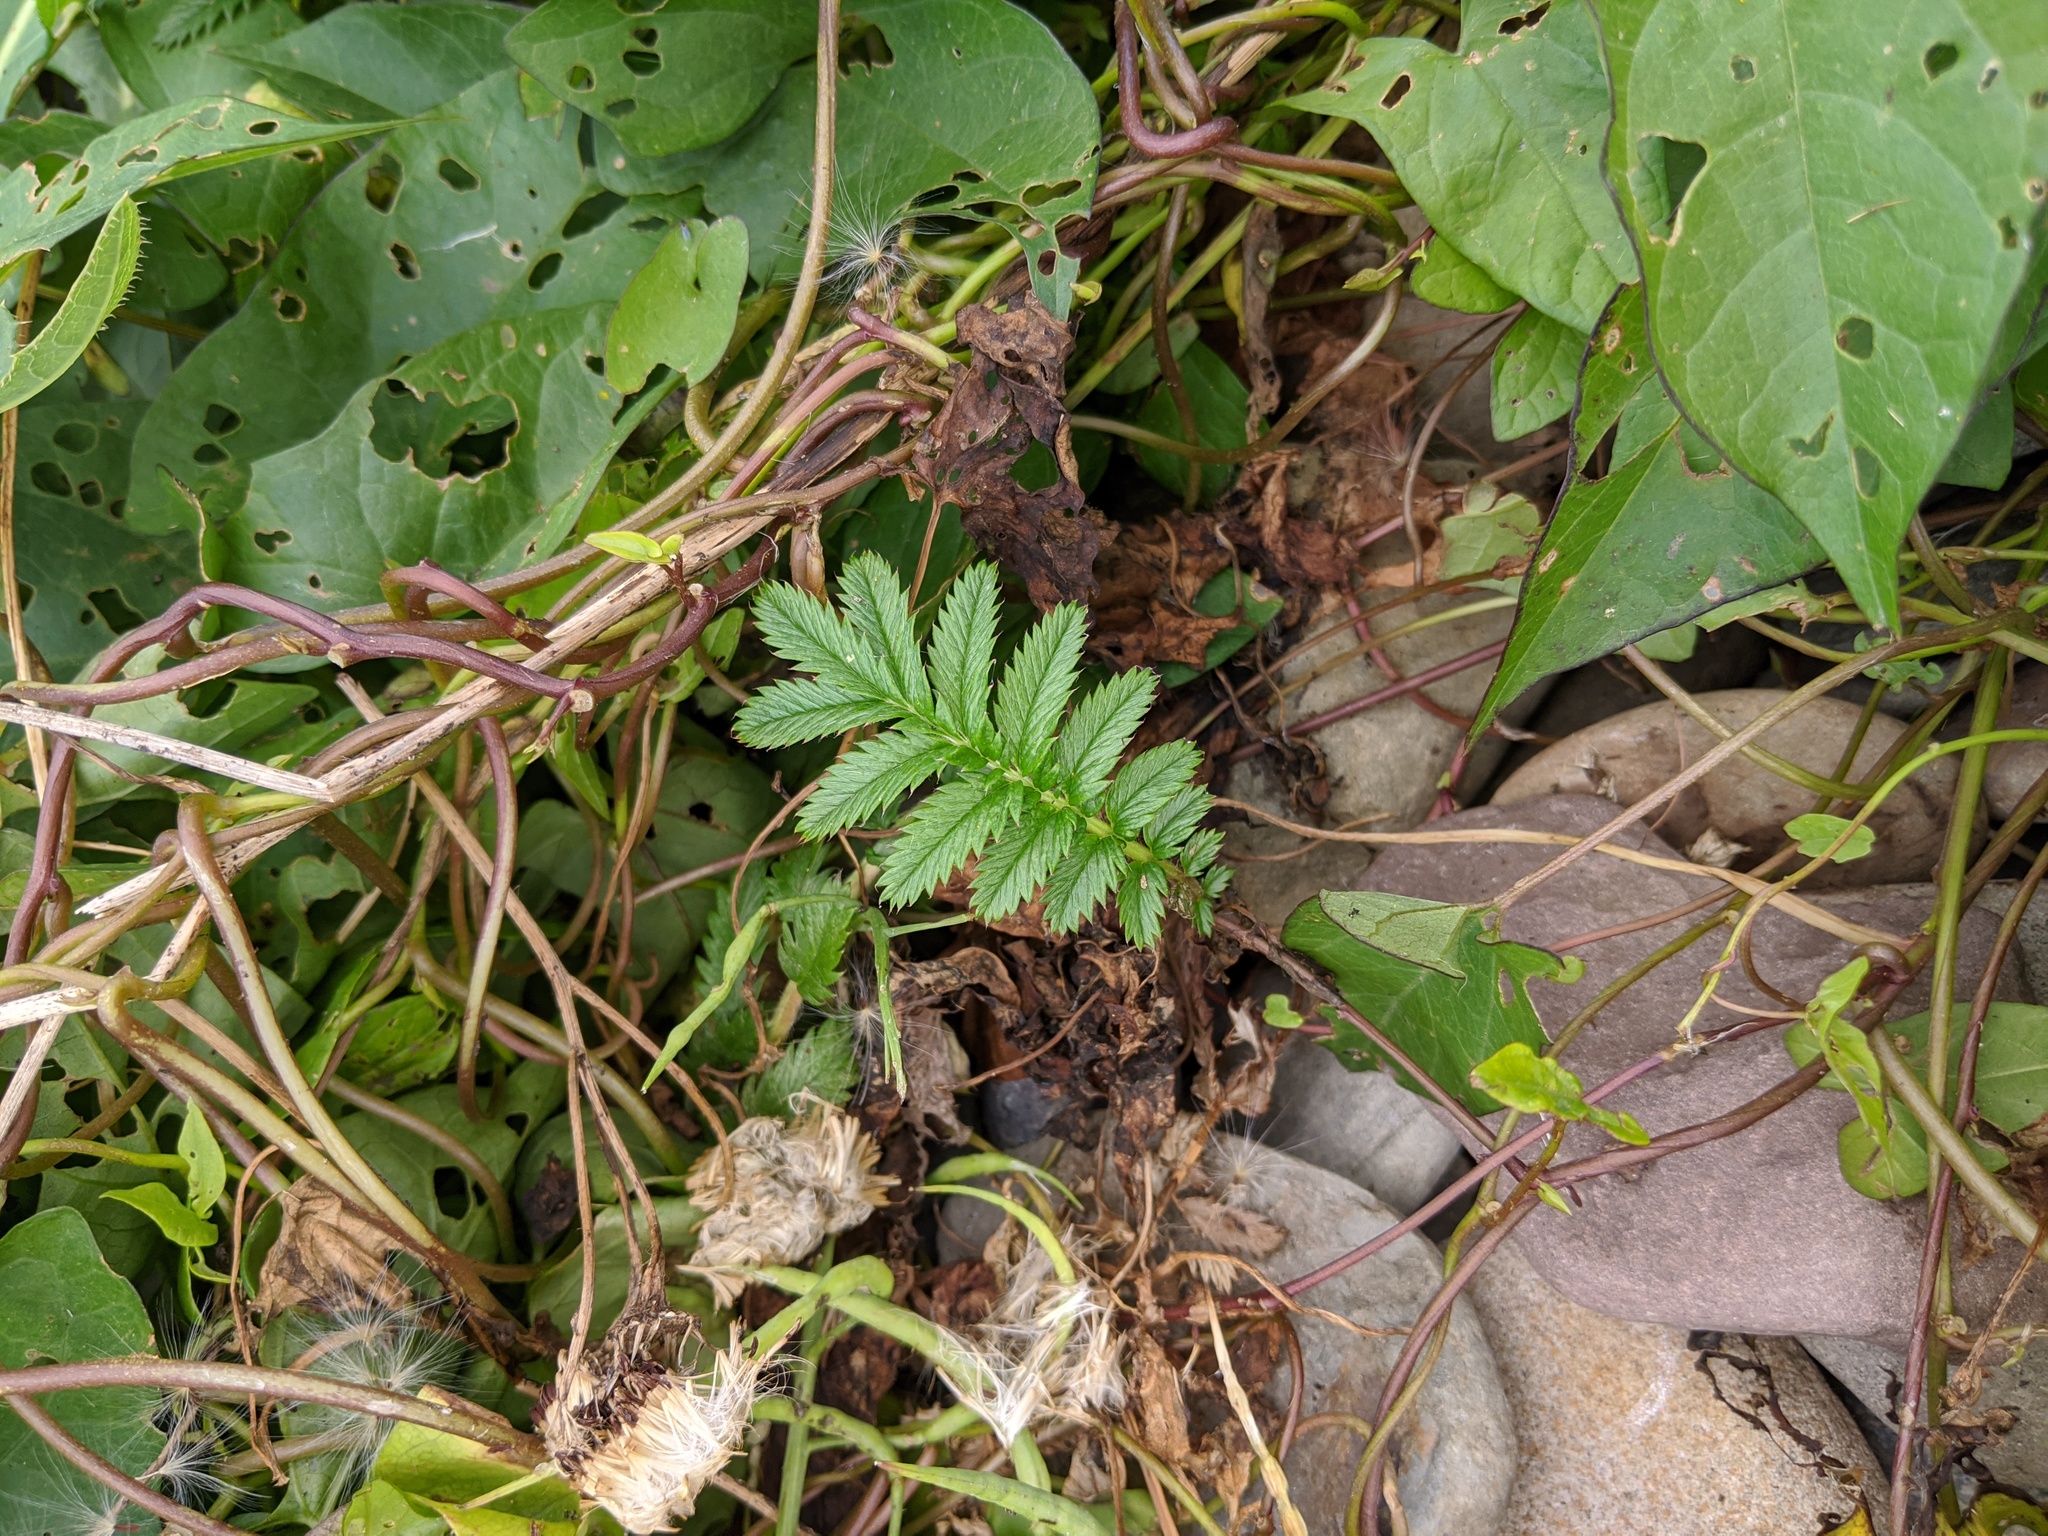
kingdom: Plantae
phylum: Tracheophyta
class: Magnoliopsida
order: Rosales
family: Rosaceae
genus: Argentina
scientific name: Argentina anserina
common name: Common silverweed
